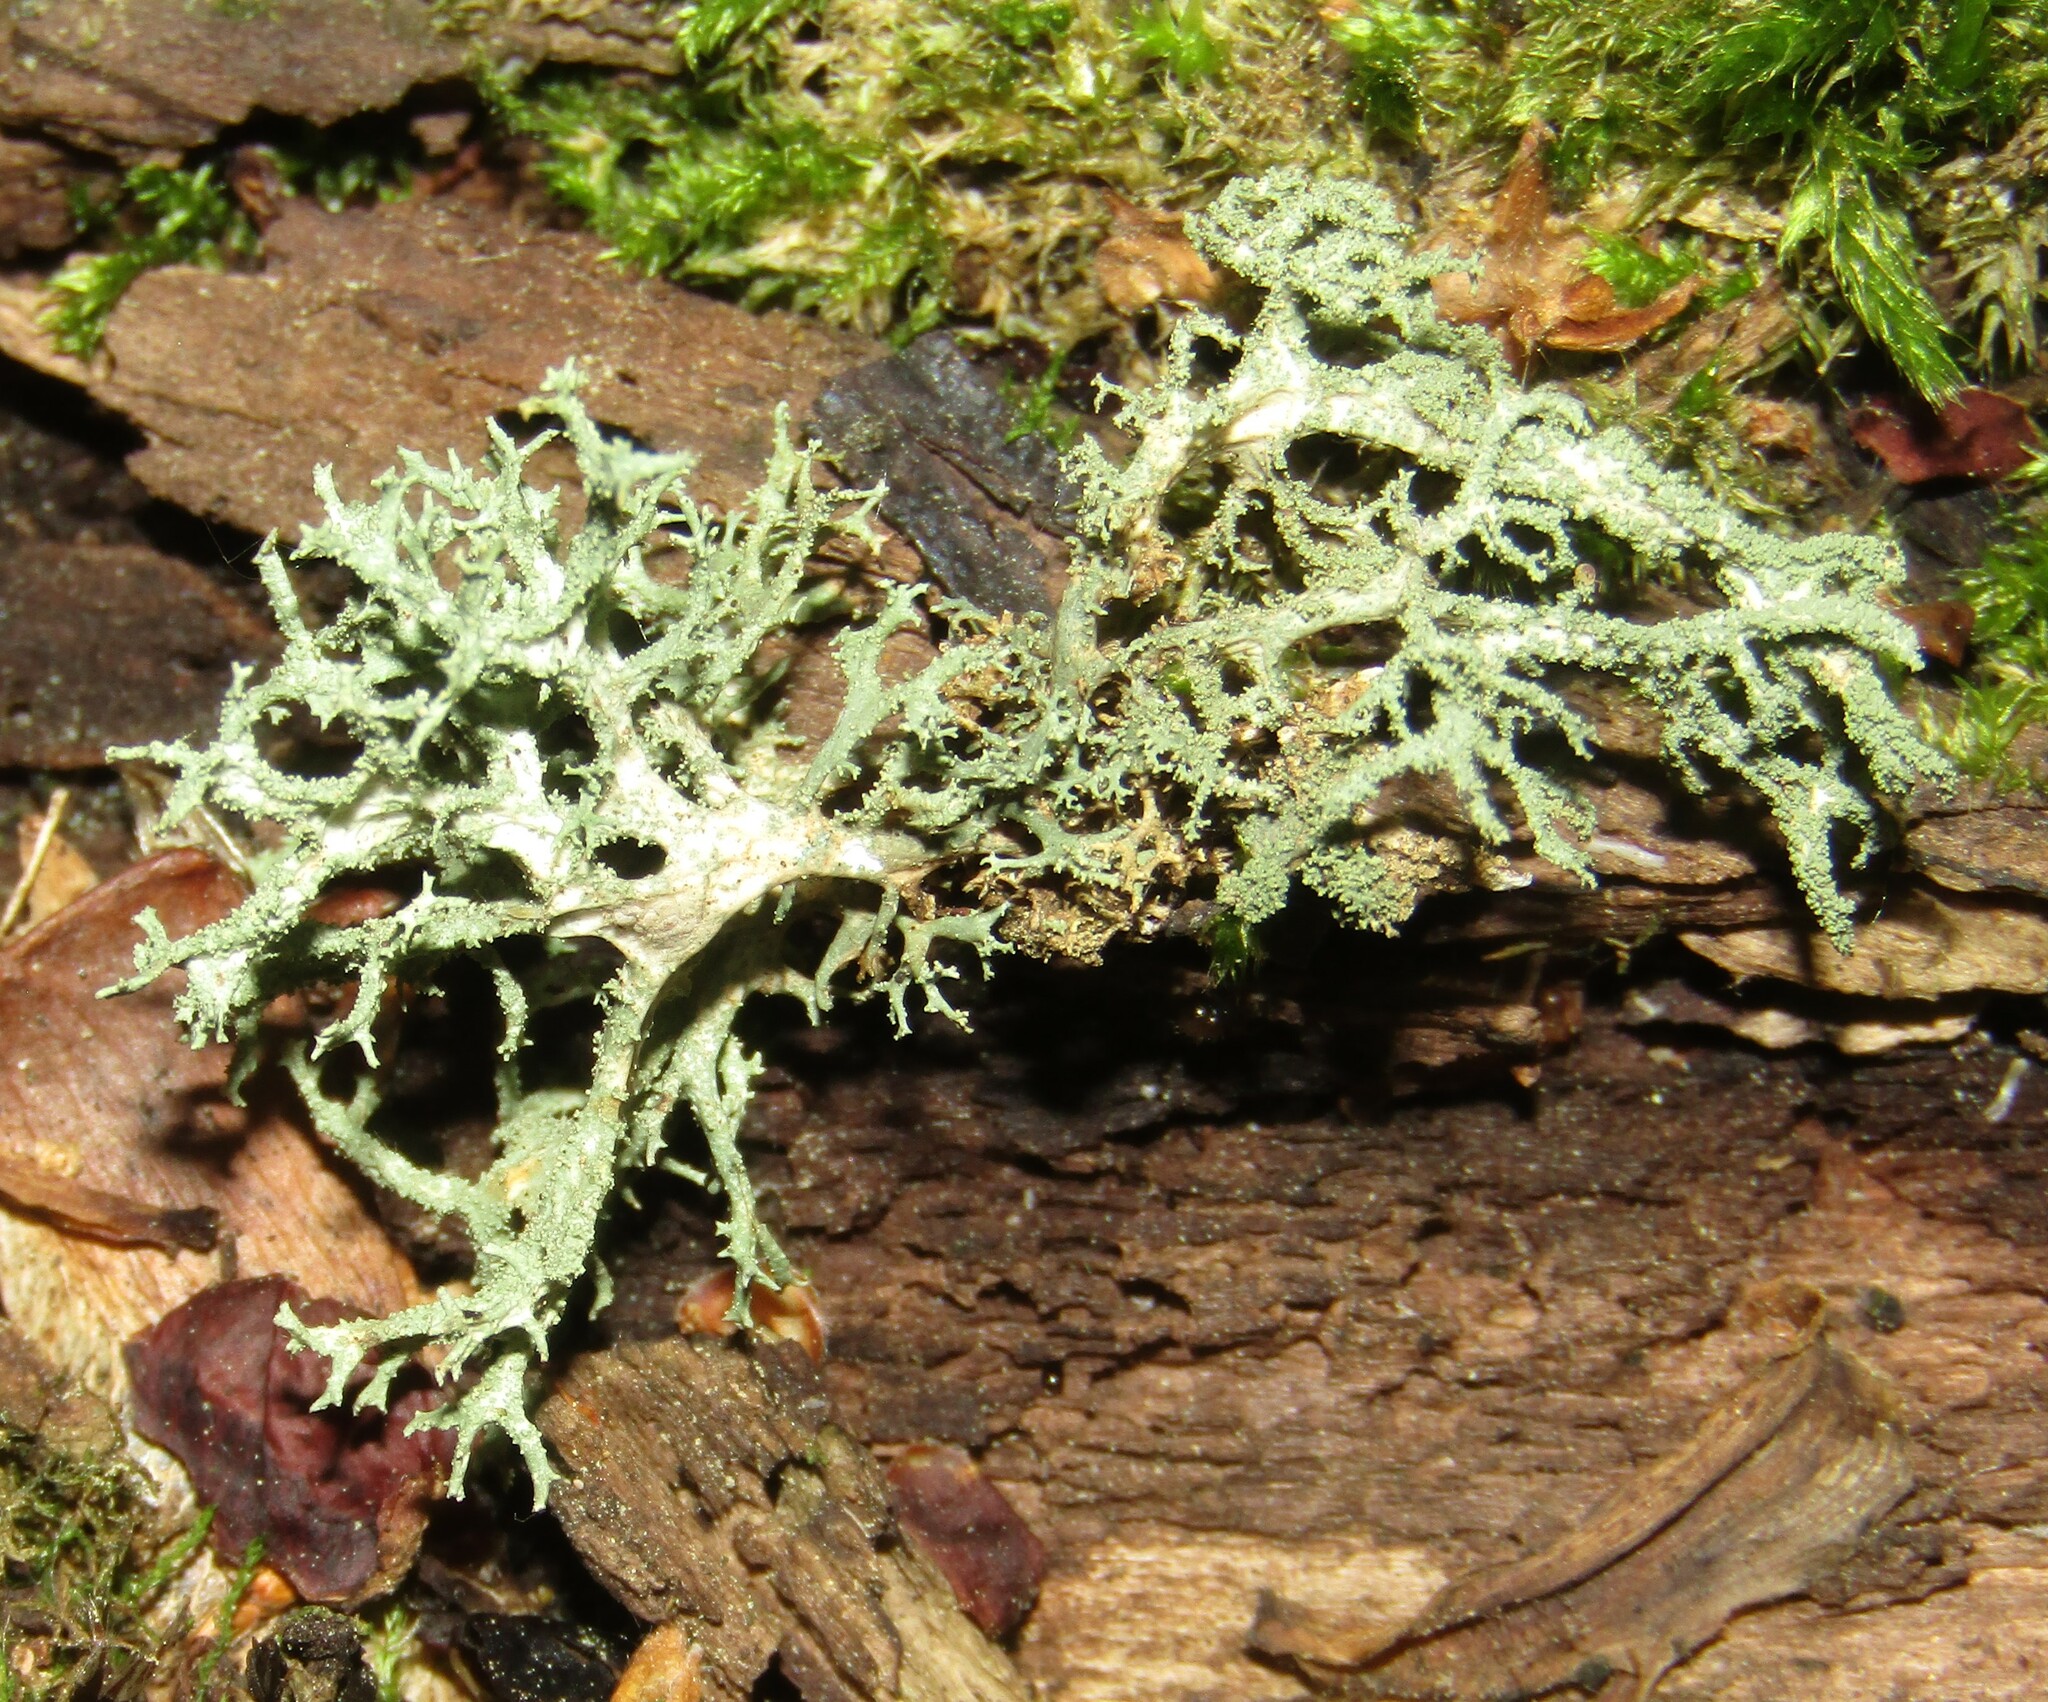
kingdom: Fungi
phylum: Ascomycota
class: Lecanoromycetes
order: Lecanorales
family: Parmeliaceae
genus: Evernia
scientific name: Evernia mesomorpha
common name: Boreal oak moss lichen
